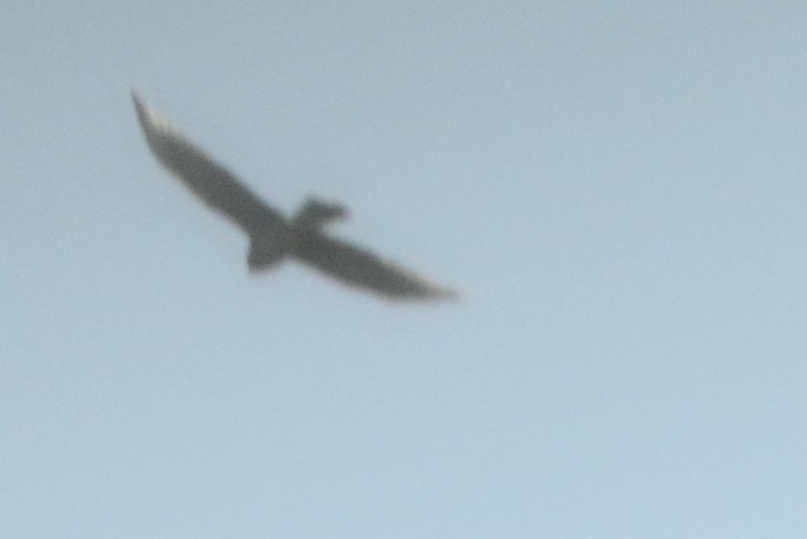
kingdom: Animalia
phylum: Chordata
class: Aves
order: Accipitriformes
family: Accipitridae
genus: Circus
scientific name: Circus cyaneus
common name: Hen harrier
